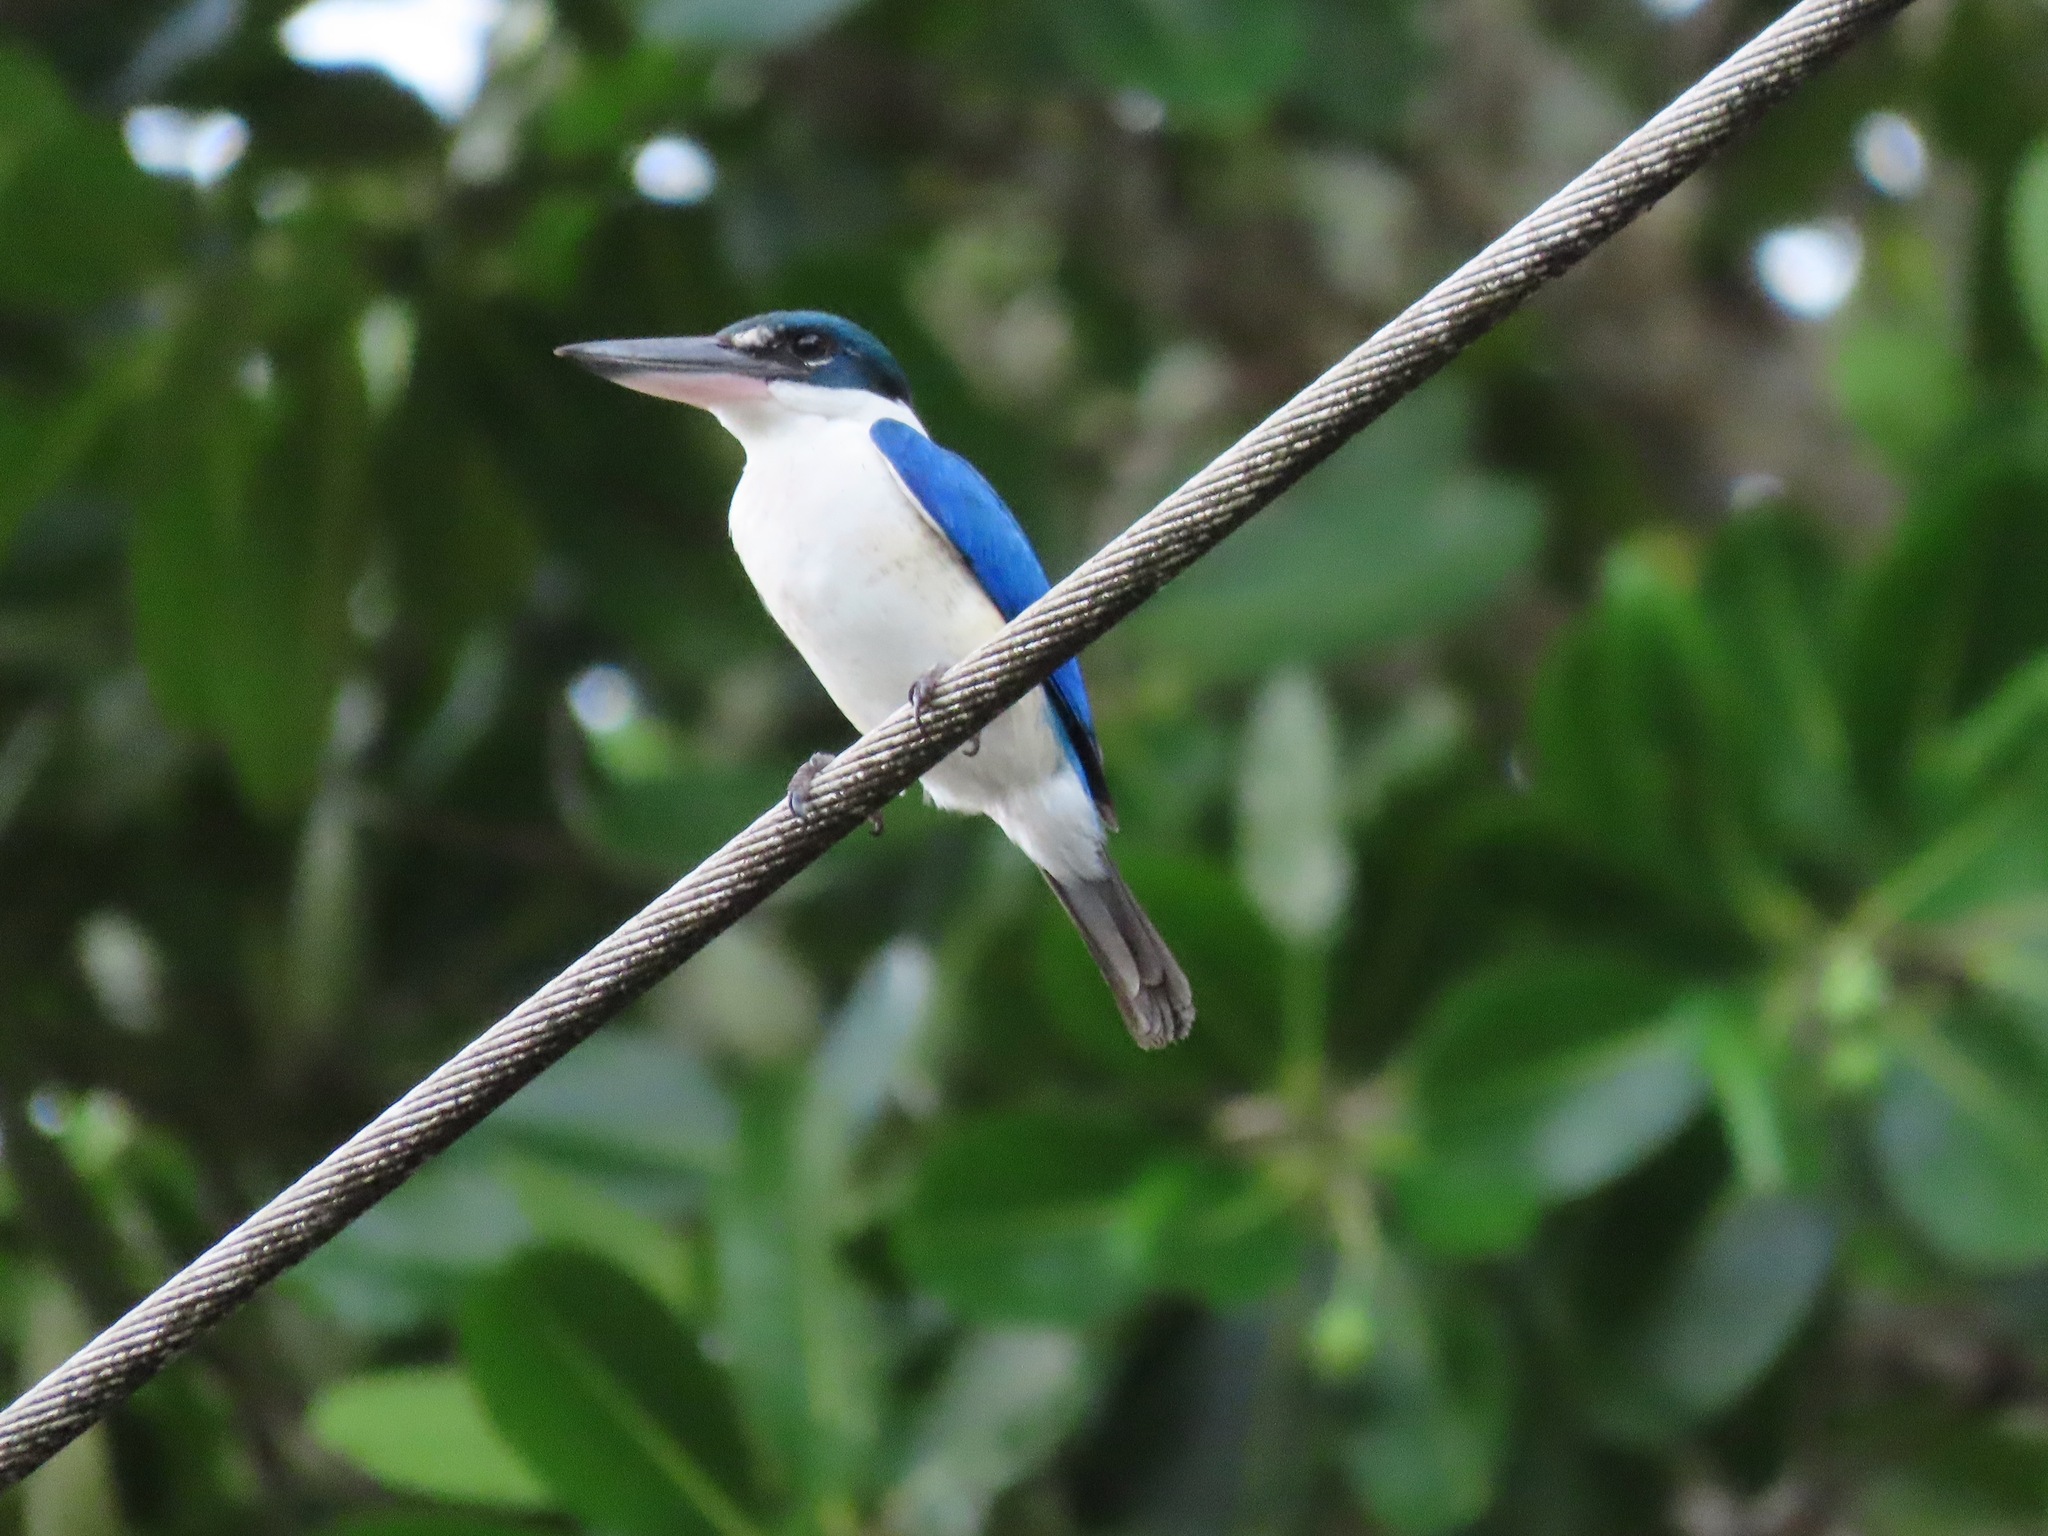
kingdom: Animalia
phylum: Chordata
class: Aves
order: Coraciiformes
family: Alcedinidae
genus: Todiramphus
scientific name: Todiramphus chloris
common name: Collared kingfisher
